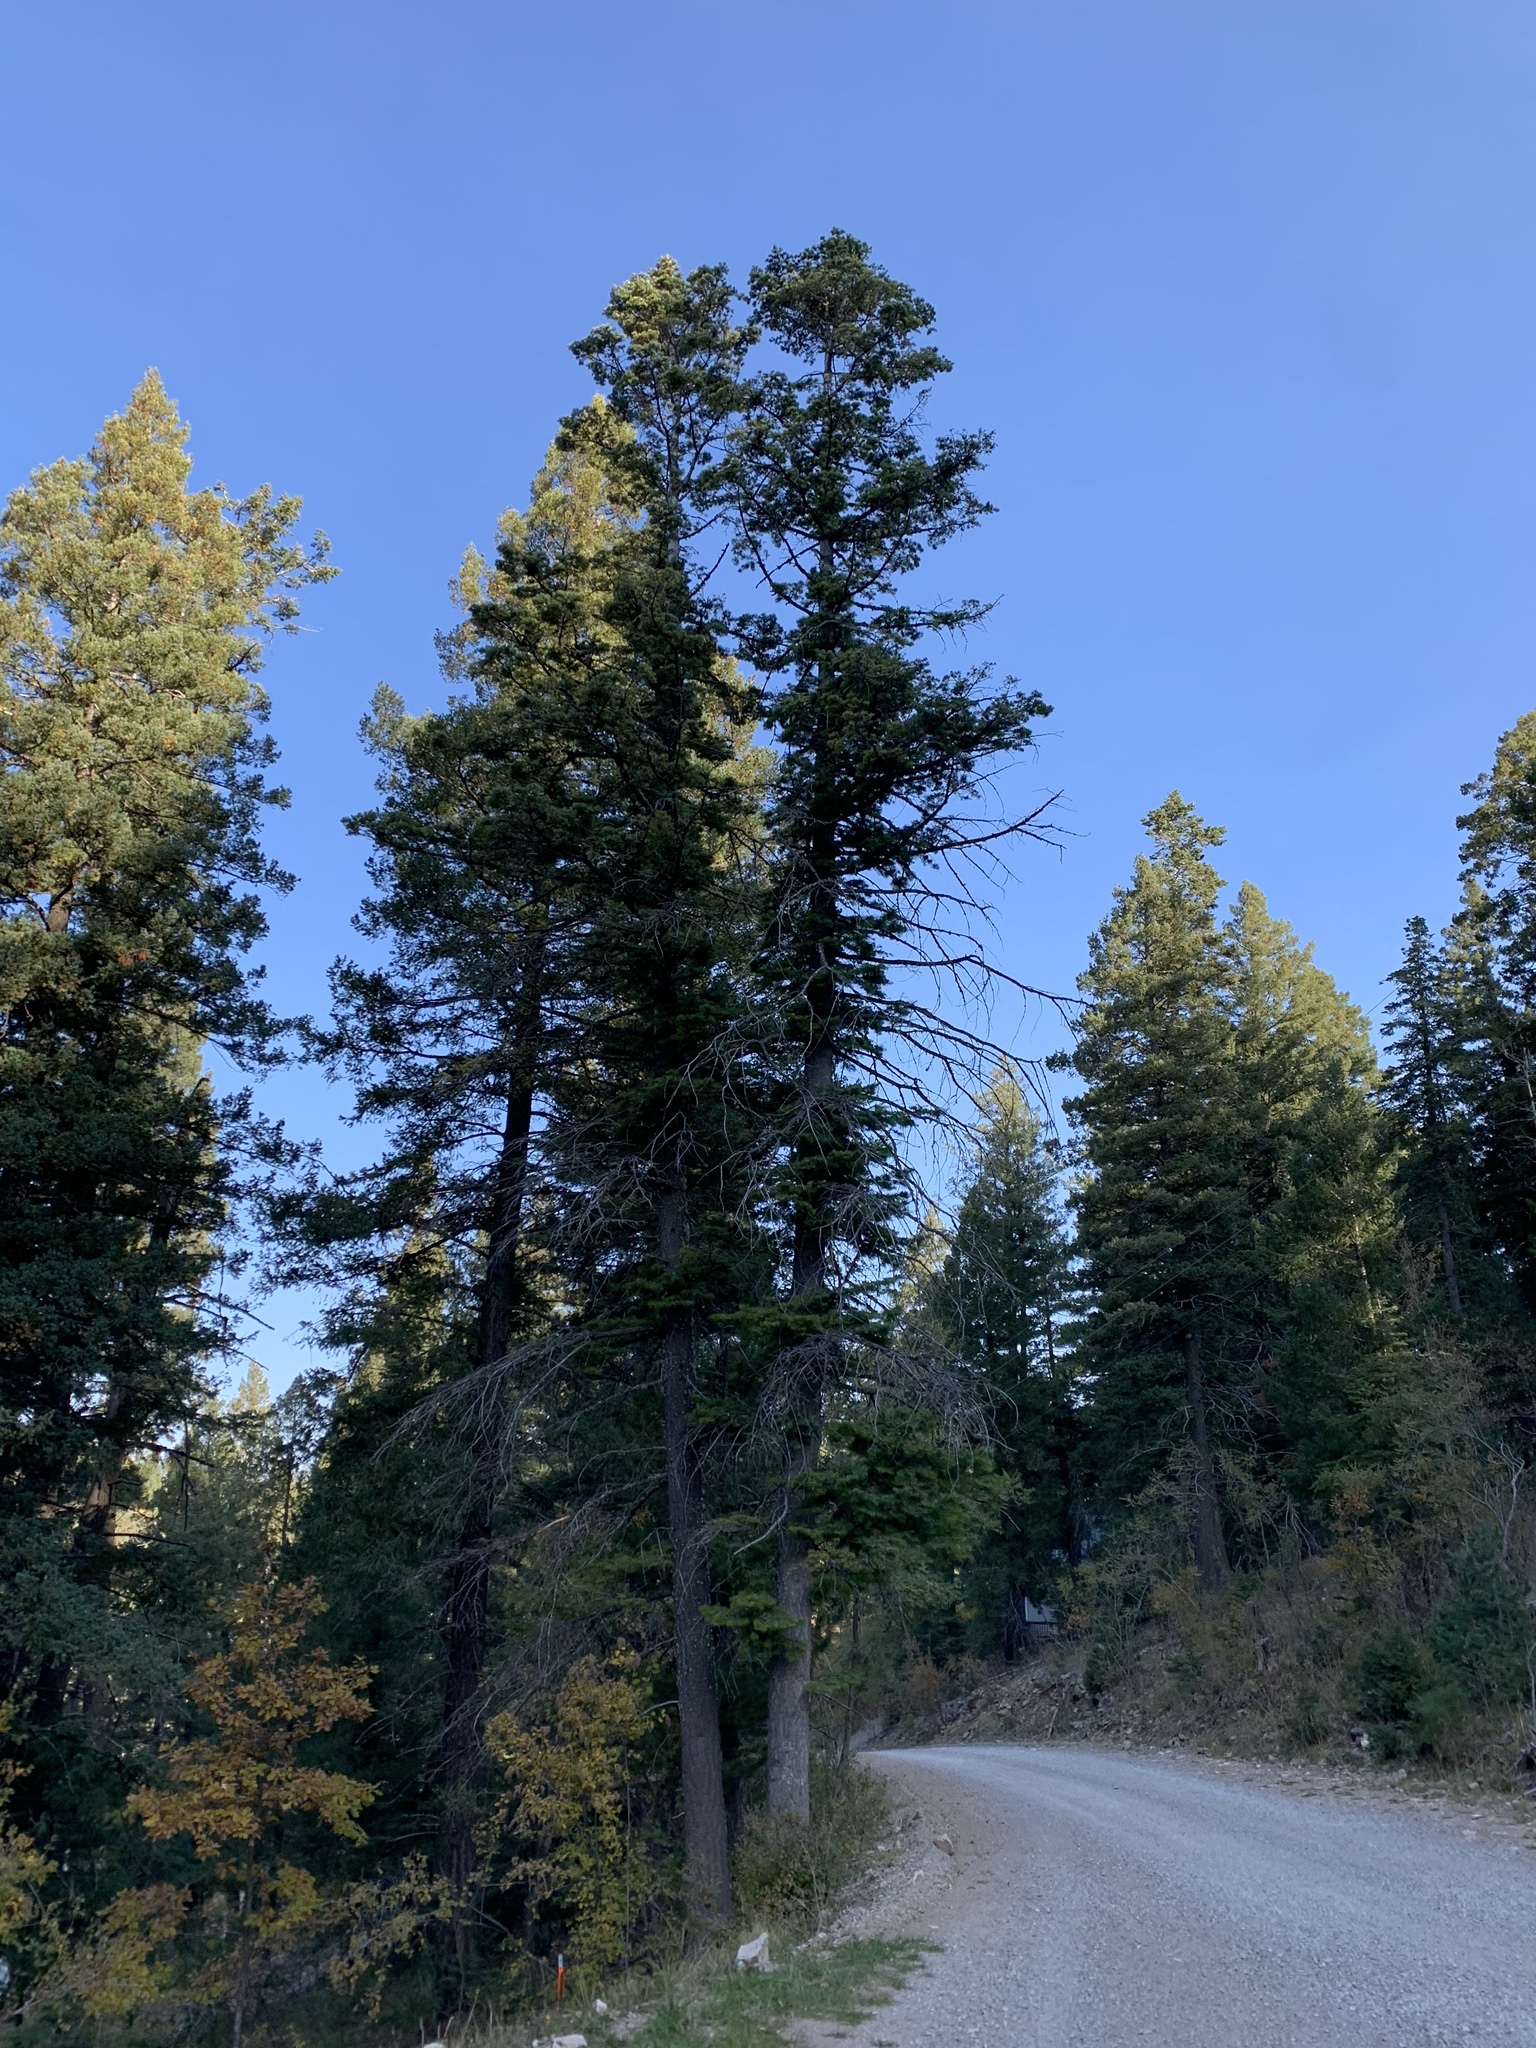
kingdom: Plantae
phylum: Tracheophyta
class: Pinopsida
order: Pinales
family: Pinaceae
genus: Abies
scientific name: Abies concolor
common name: Colorado fir
